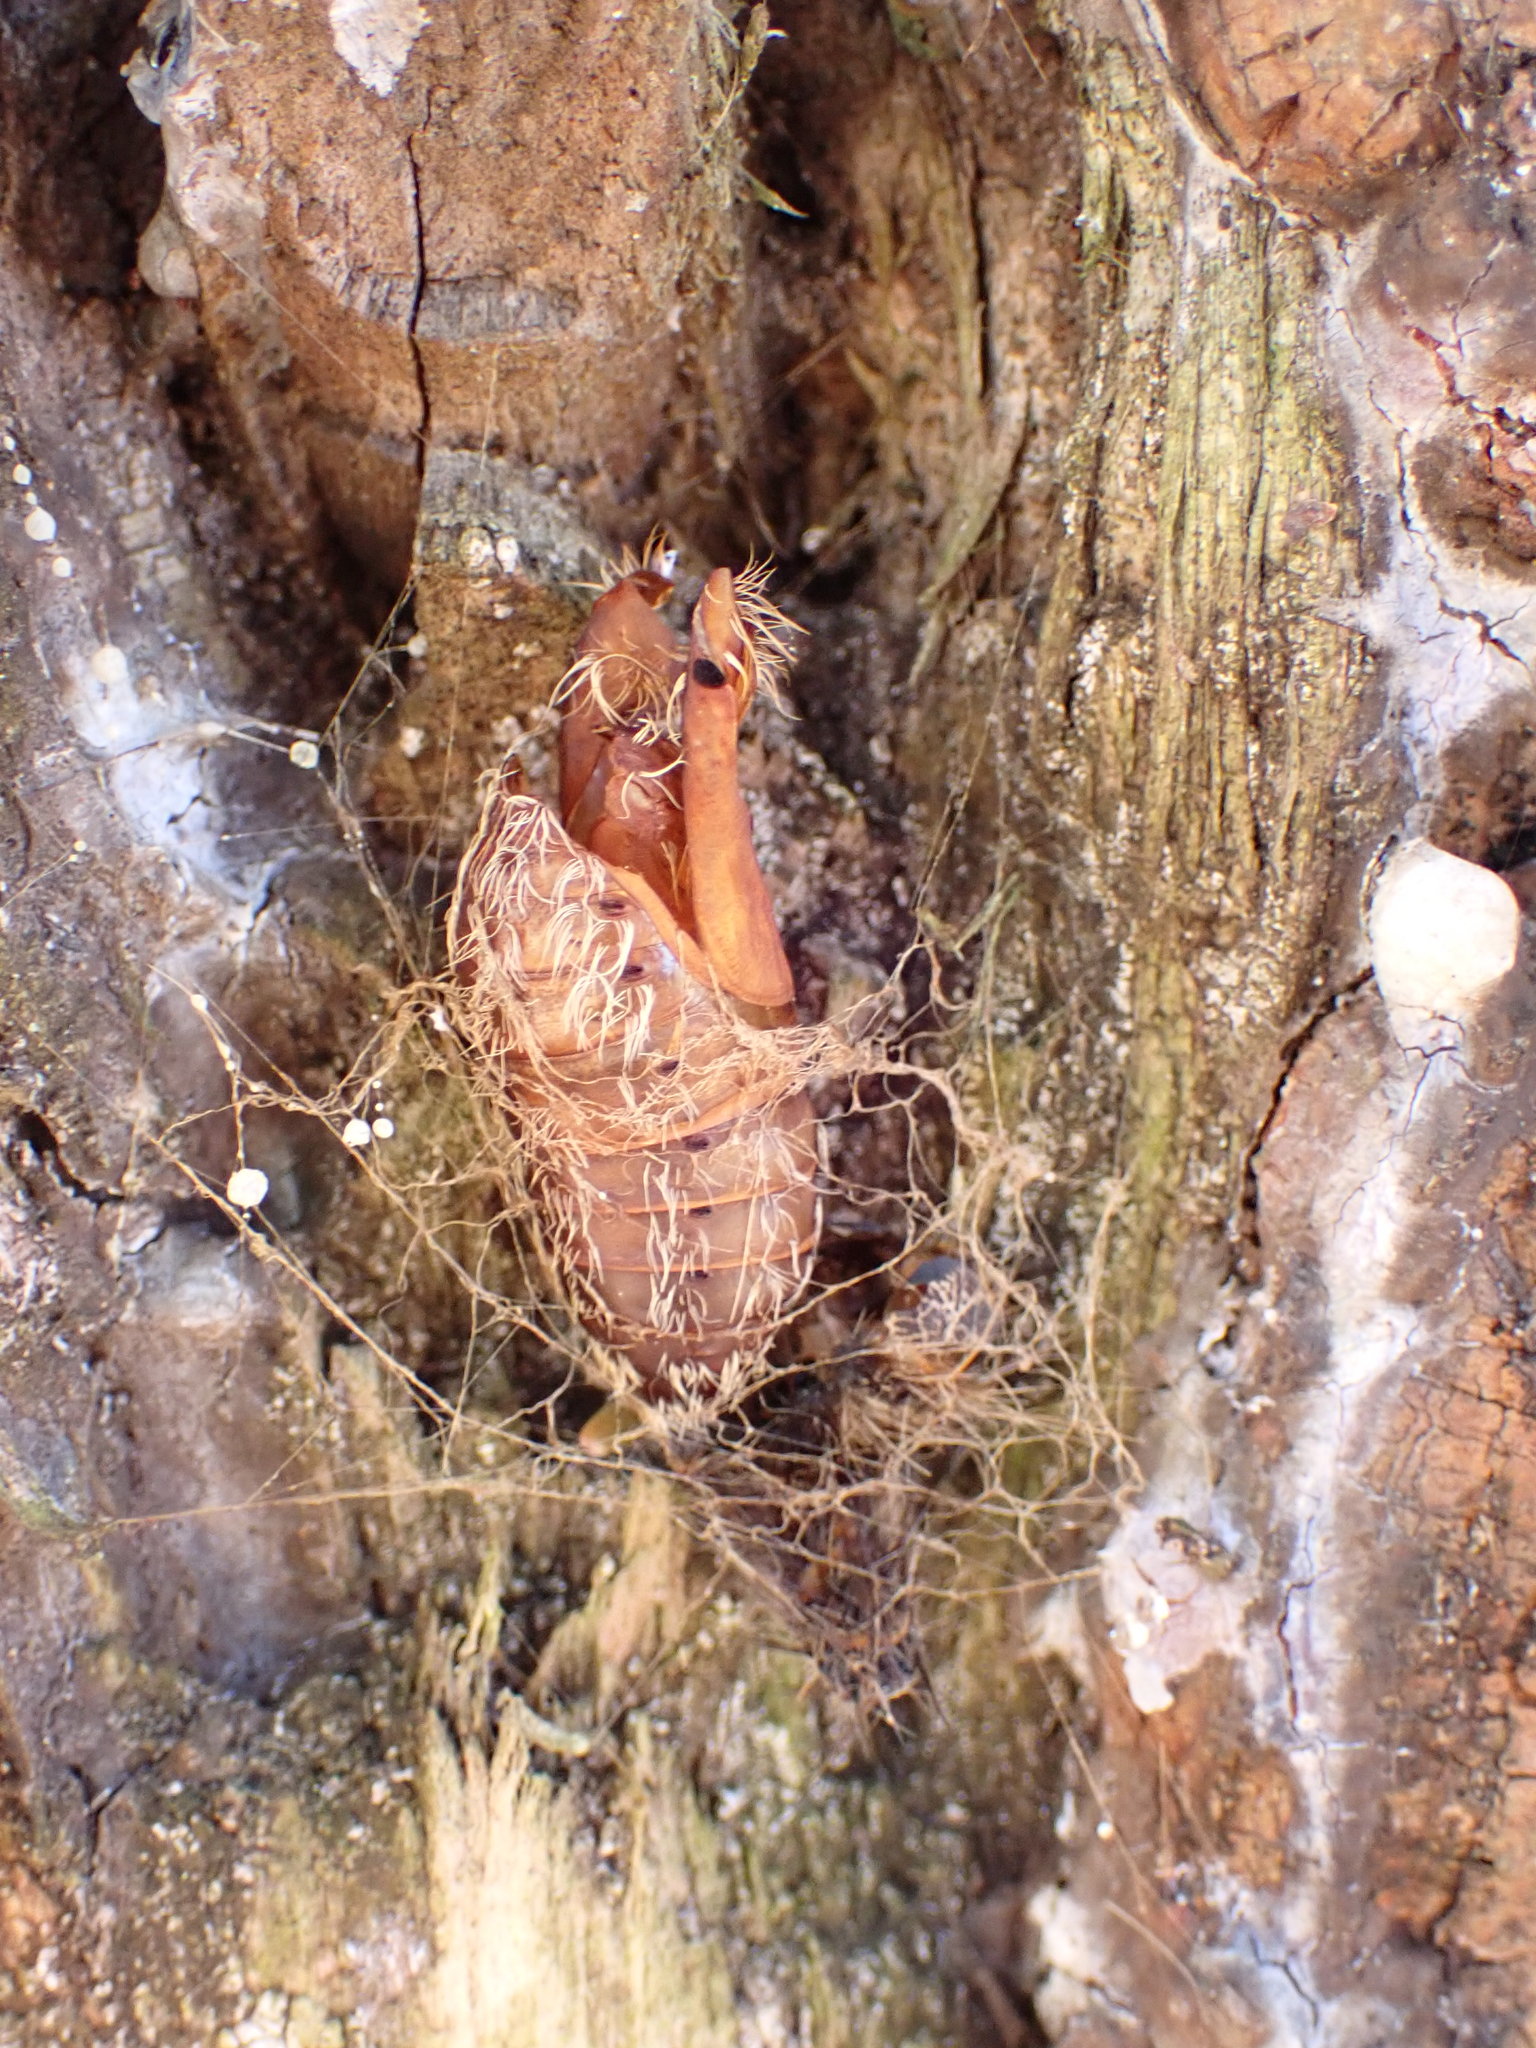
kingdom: Animalia
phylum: Arthropoda
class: Insecta
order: Lepidoptera
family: Erebidae
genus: Lymantria
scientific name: Lymantria dispar
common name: Gypsy moth
